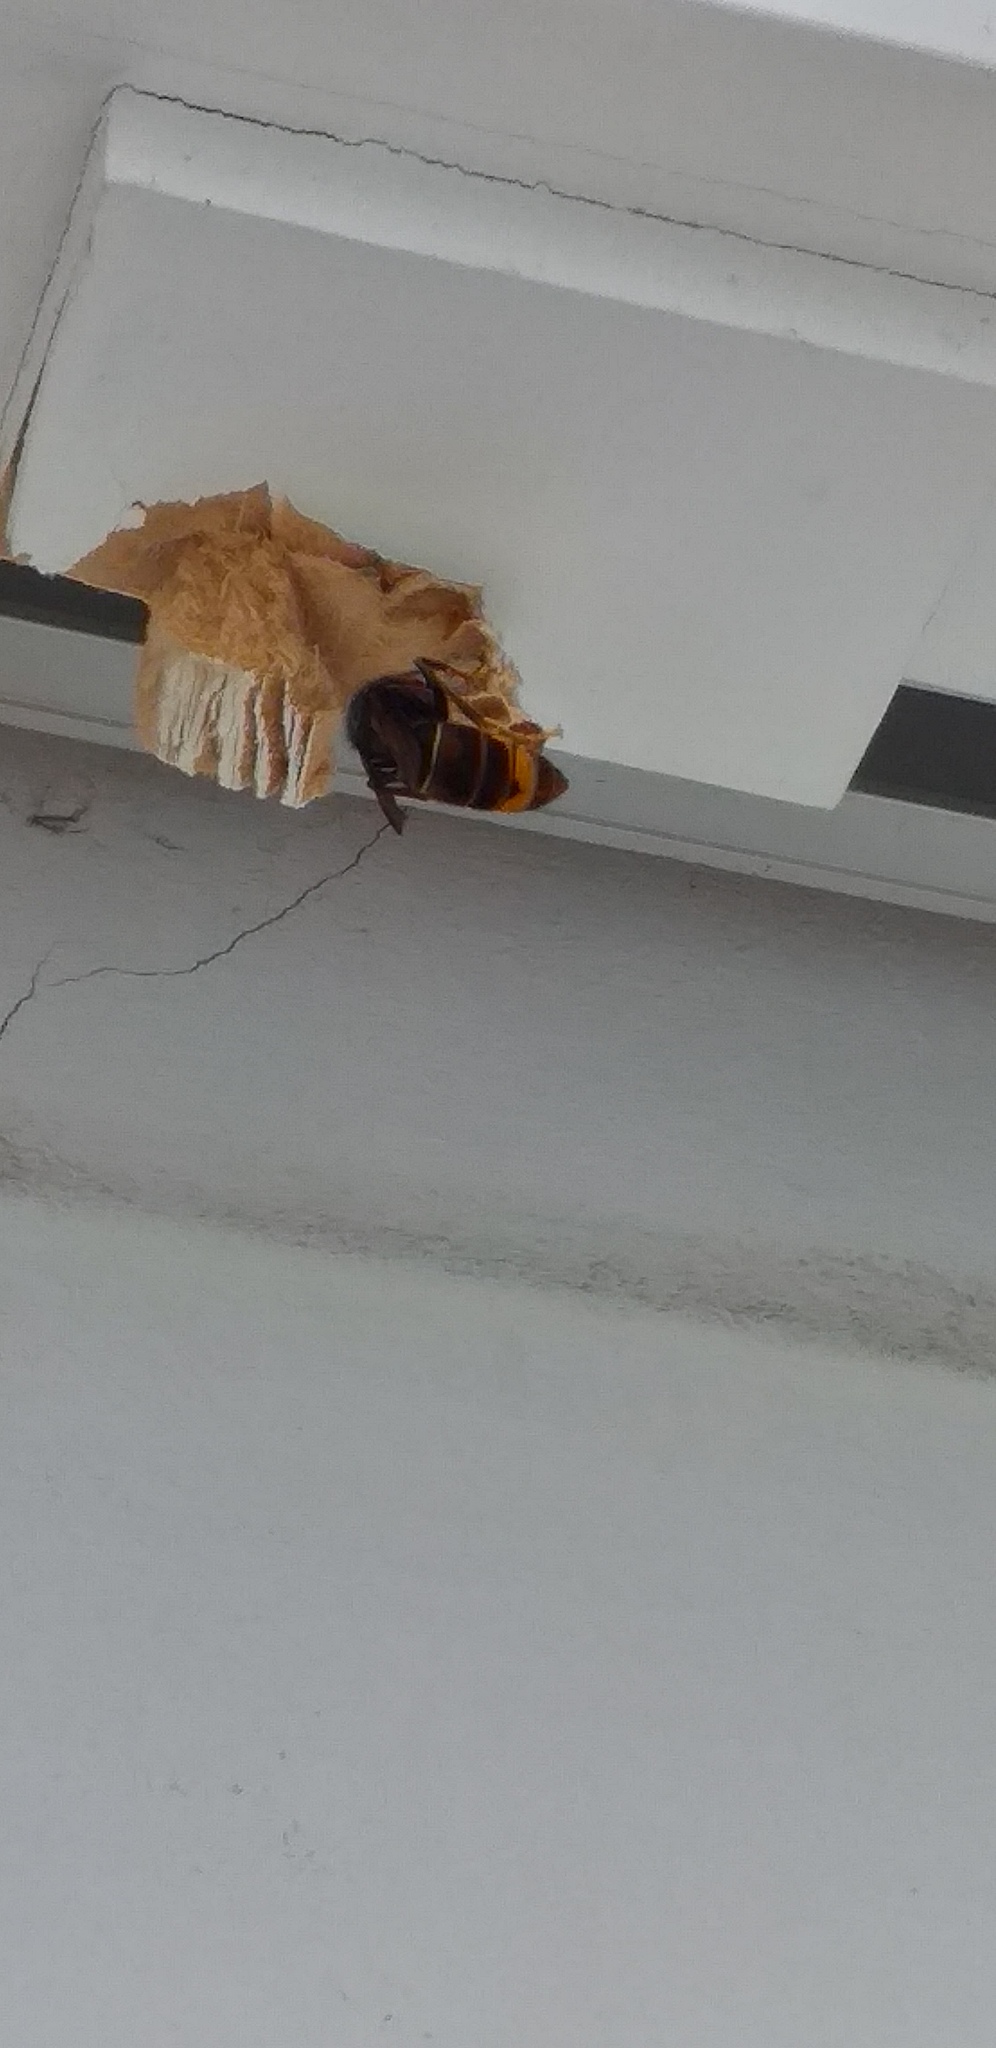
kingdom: Animalia
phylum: Arthropoda
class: Insecta
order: Hymenoptera
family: Vespidae
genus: Vespa
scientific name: Vespa velutina
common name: Asian hornet
